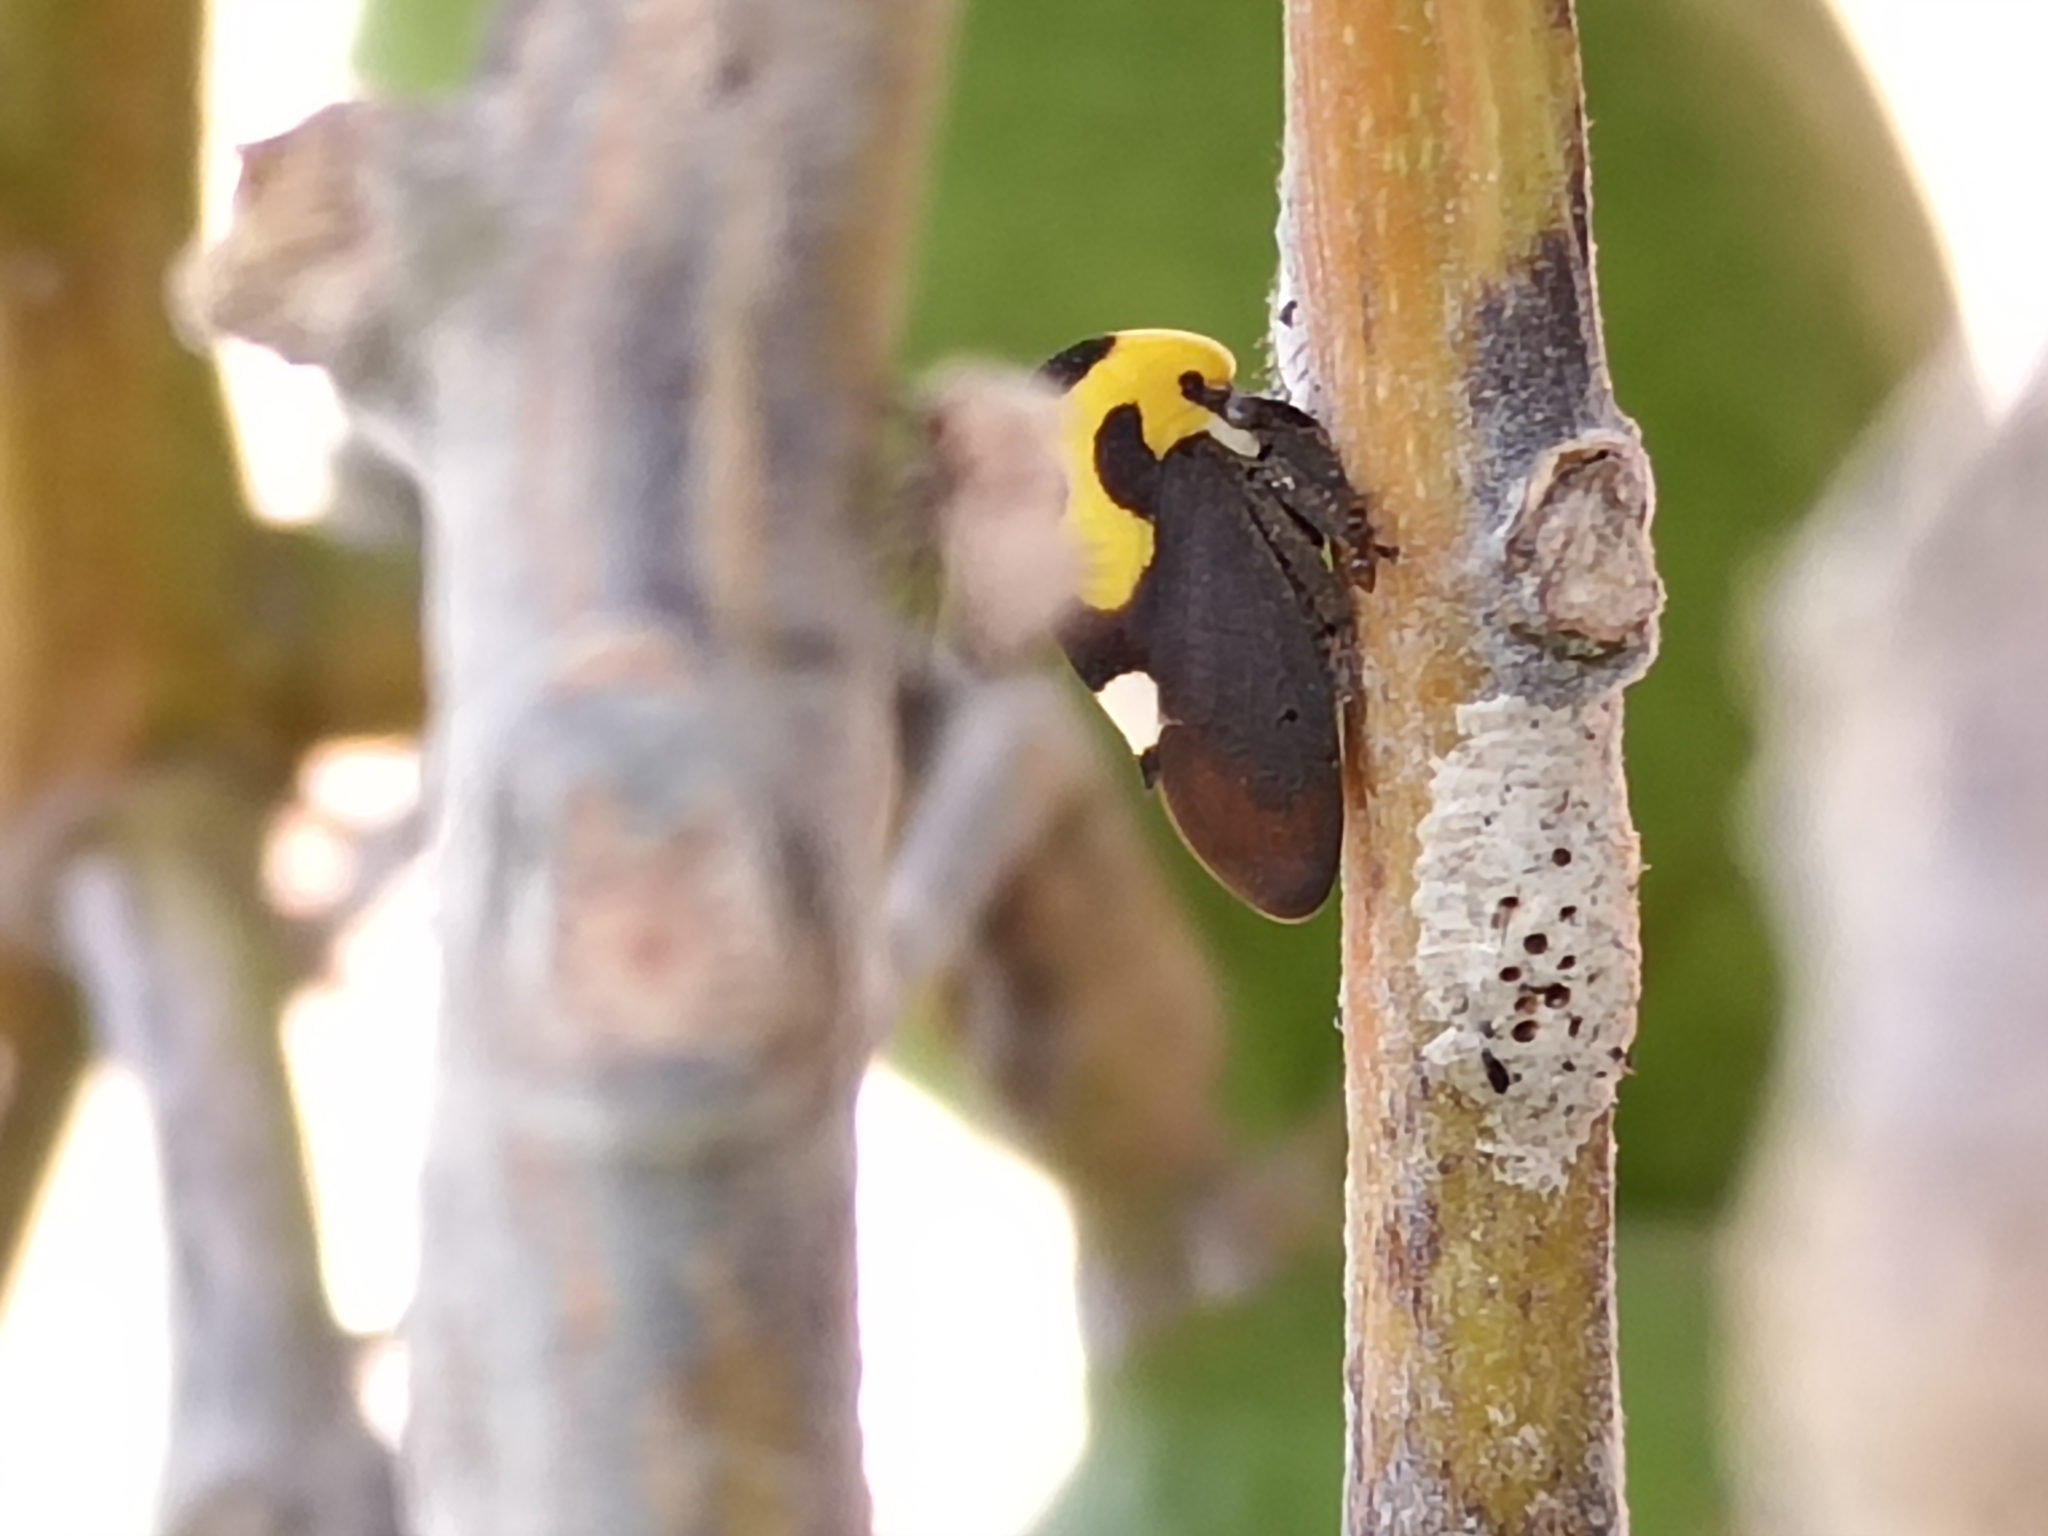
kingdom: Animalia
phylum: Arthropoda
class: Insecta
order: Hemiptera
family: Membracidae
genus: Membracis
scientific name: Membracis mexicana
